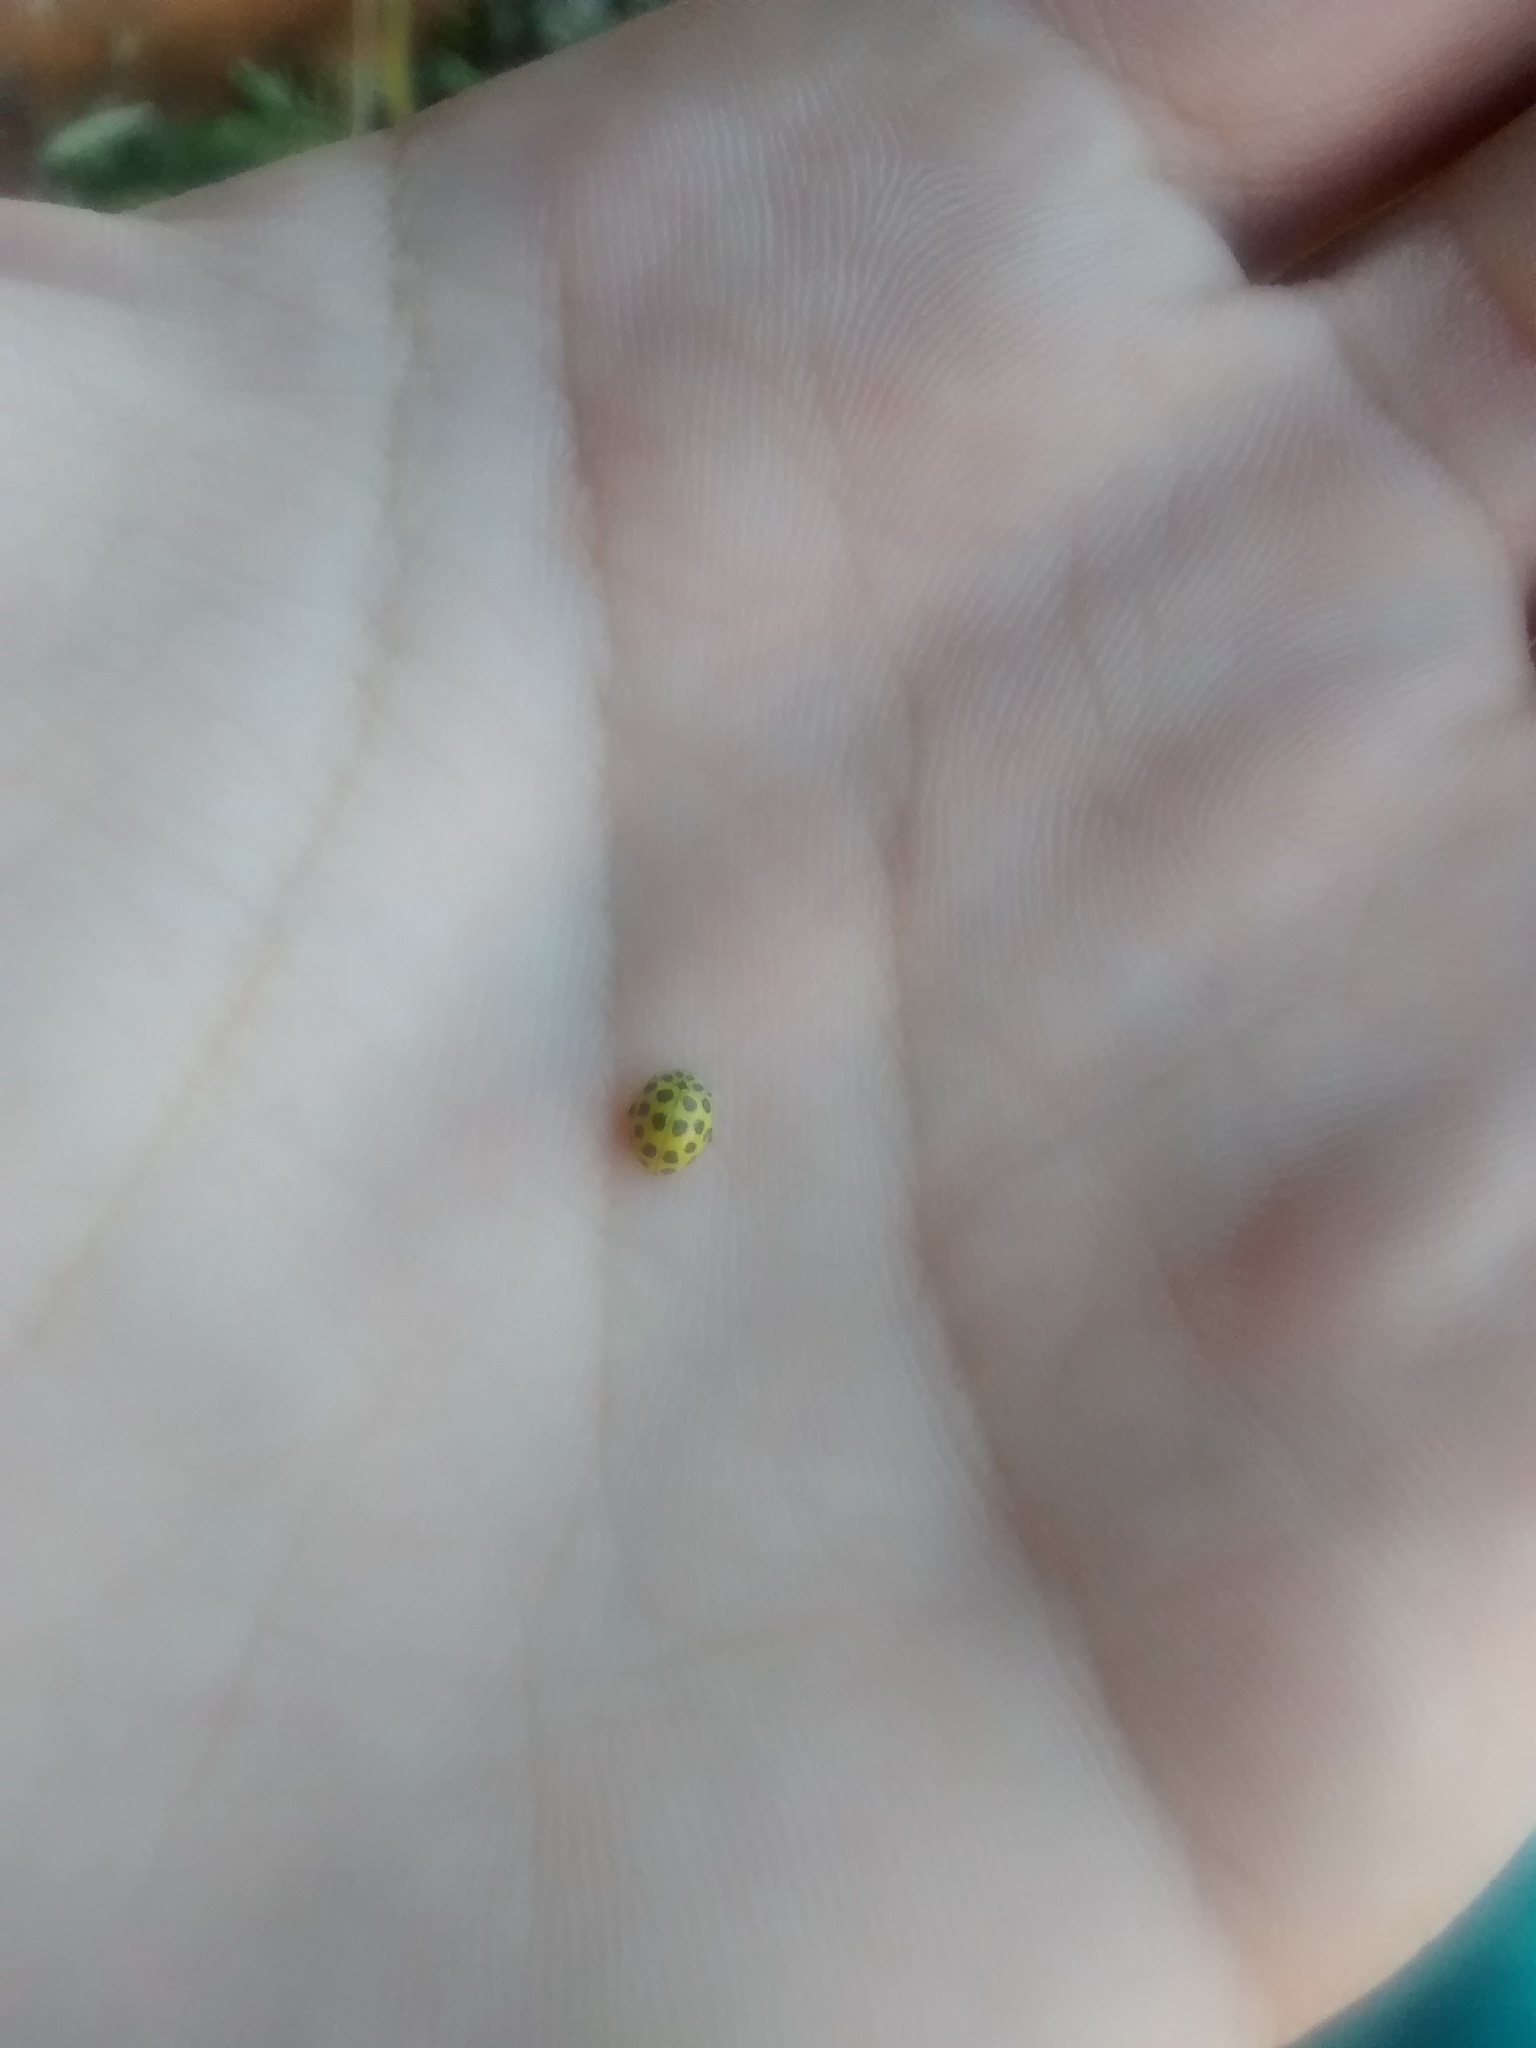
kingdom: Animalia
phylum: Arthropoda
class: Insecta
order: Coleoptera
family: Coccinellidae
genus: Psyllobora
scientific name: Psyllobora vigintiduopunctata
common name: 22-spot ladybird
